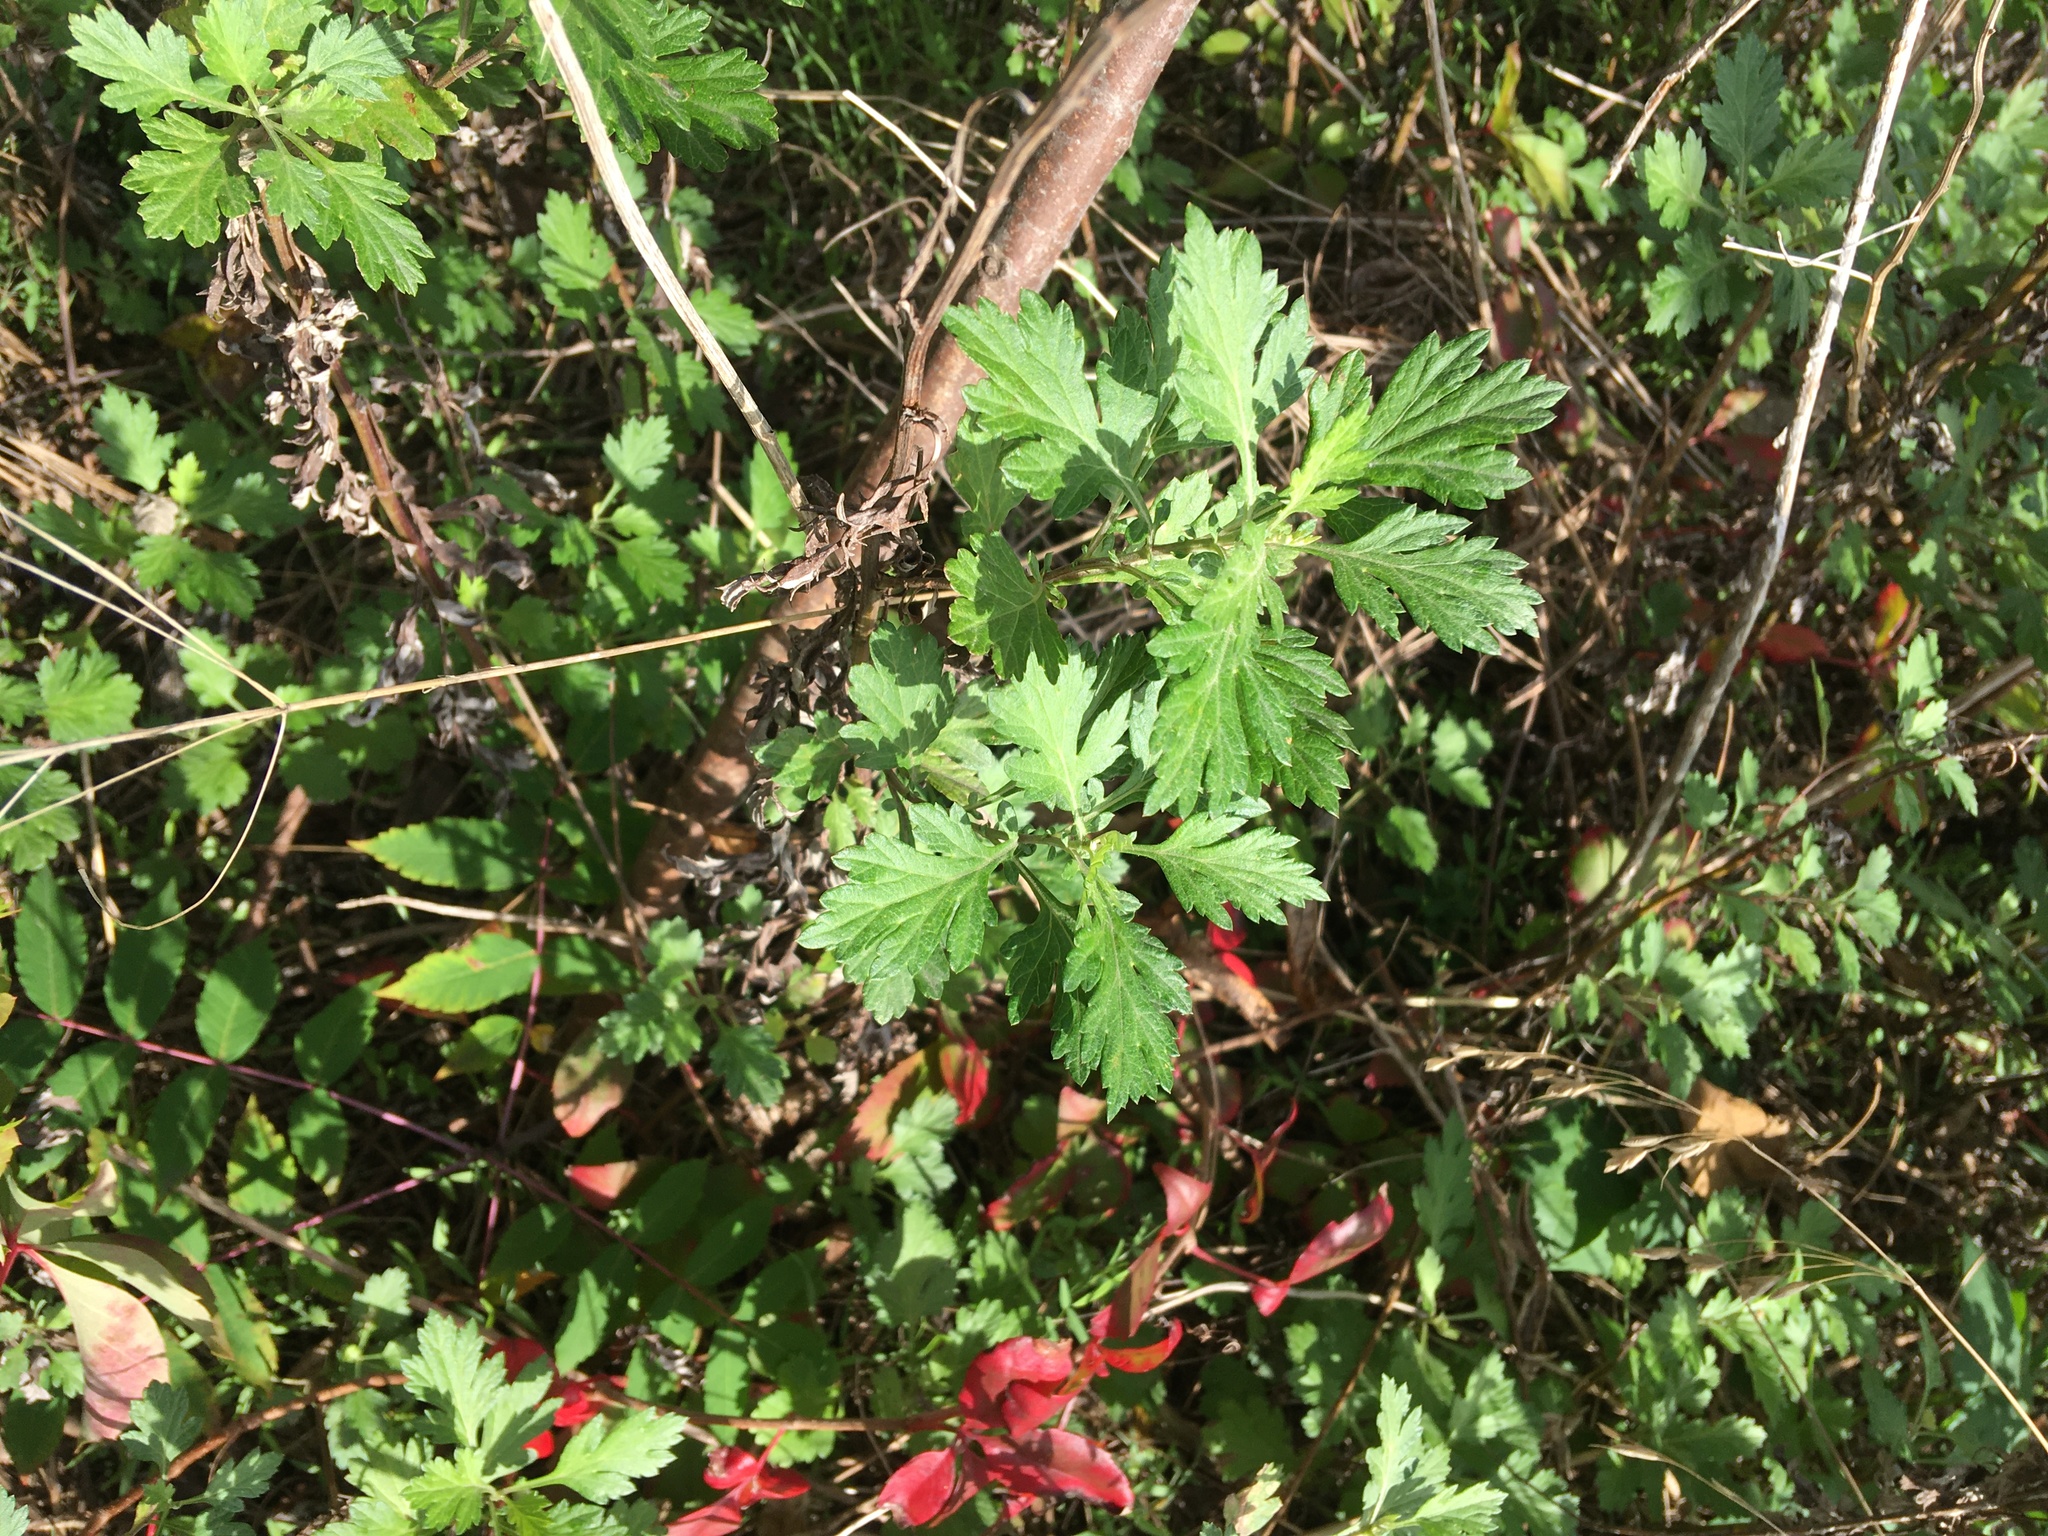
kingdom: Plantae
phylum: Tracheophyta
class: Magnoliopsida
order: Asterales
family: Asteraceae
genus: Artemisia
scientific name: Artemisia vulgaris
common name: Mugwort
